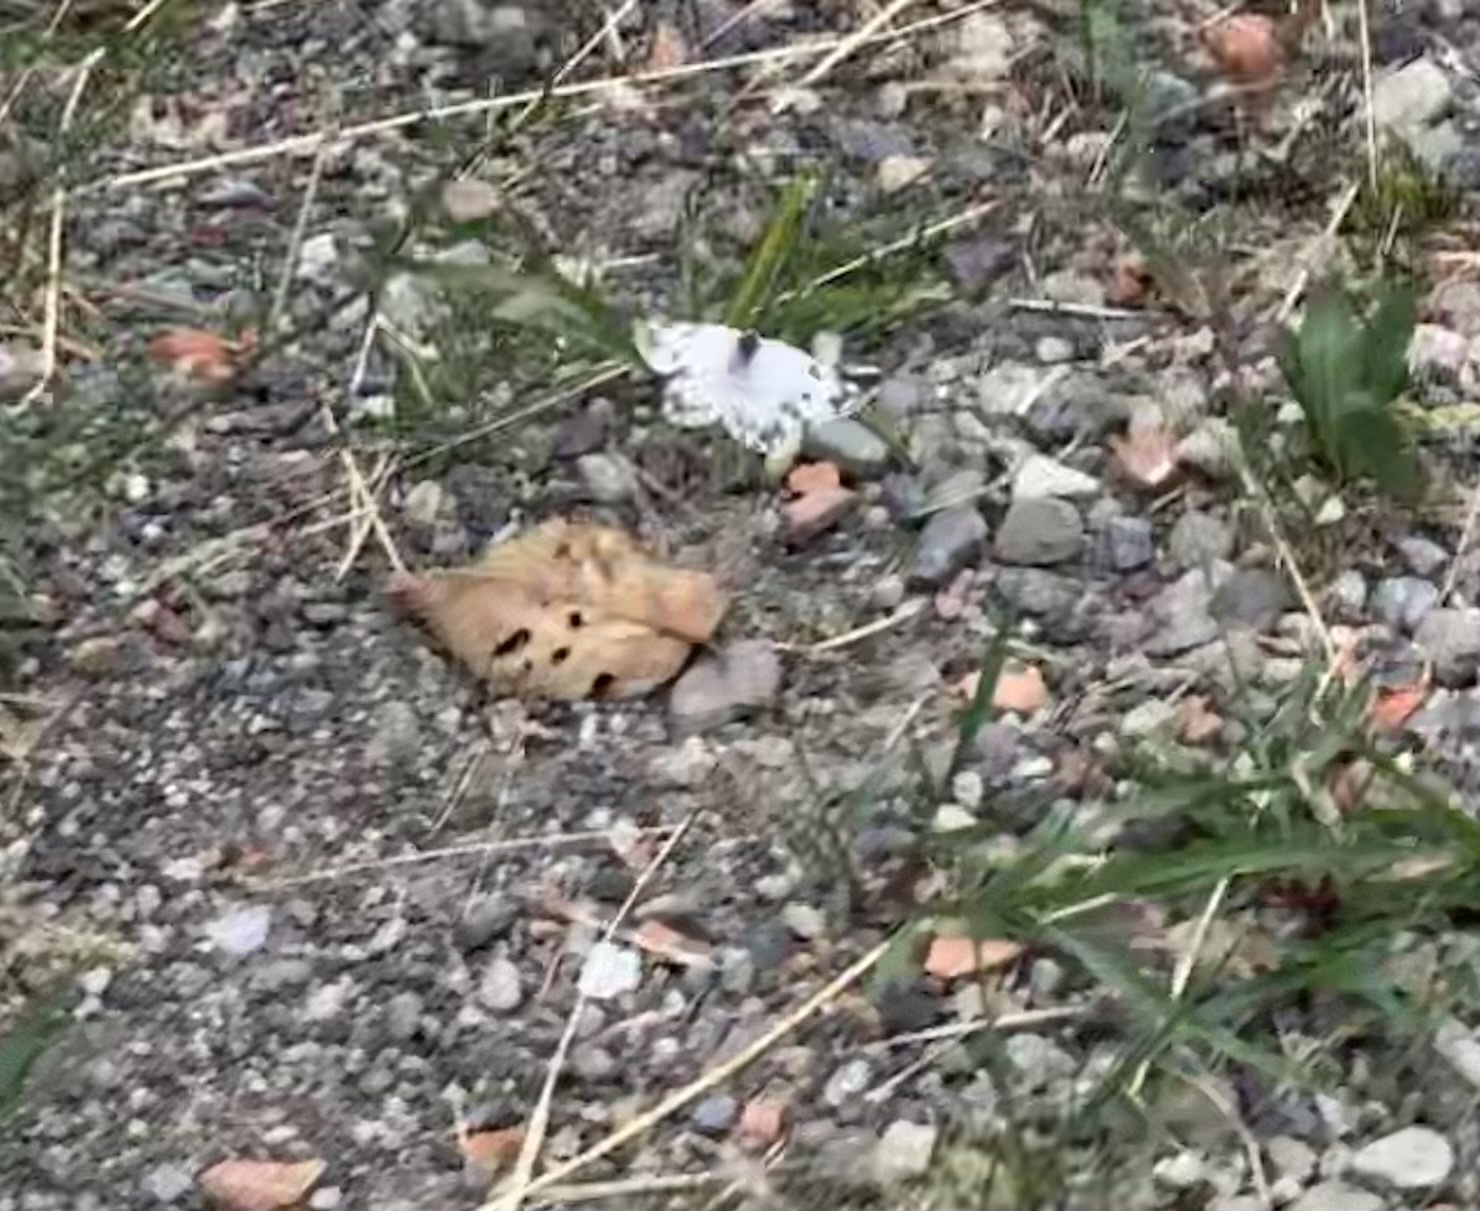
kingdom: Animalia
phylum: Arthropoda
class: Insecta
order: Lepidoptera
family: Pieridae
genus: Pontia
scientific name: Pontia edusa
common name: Eastern bath white
